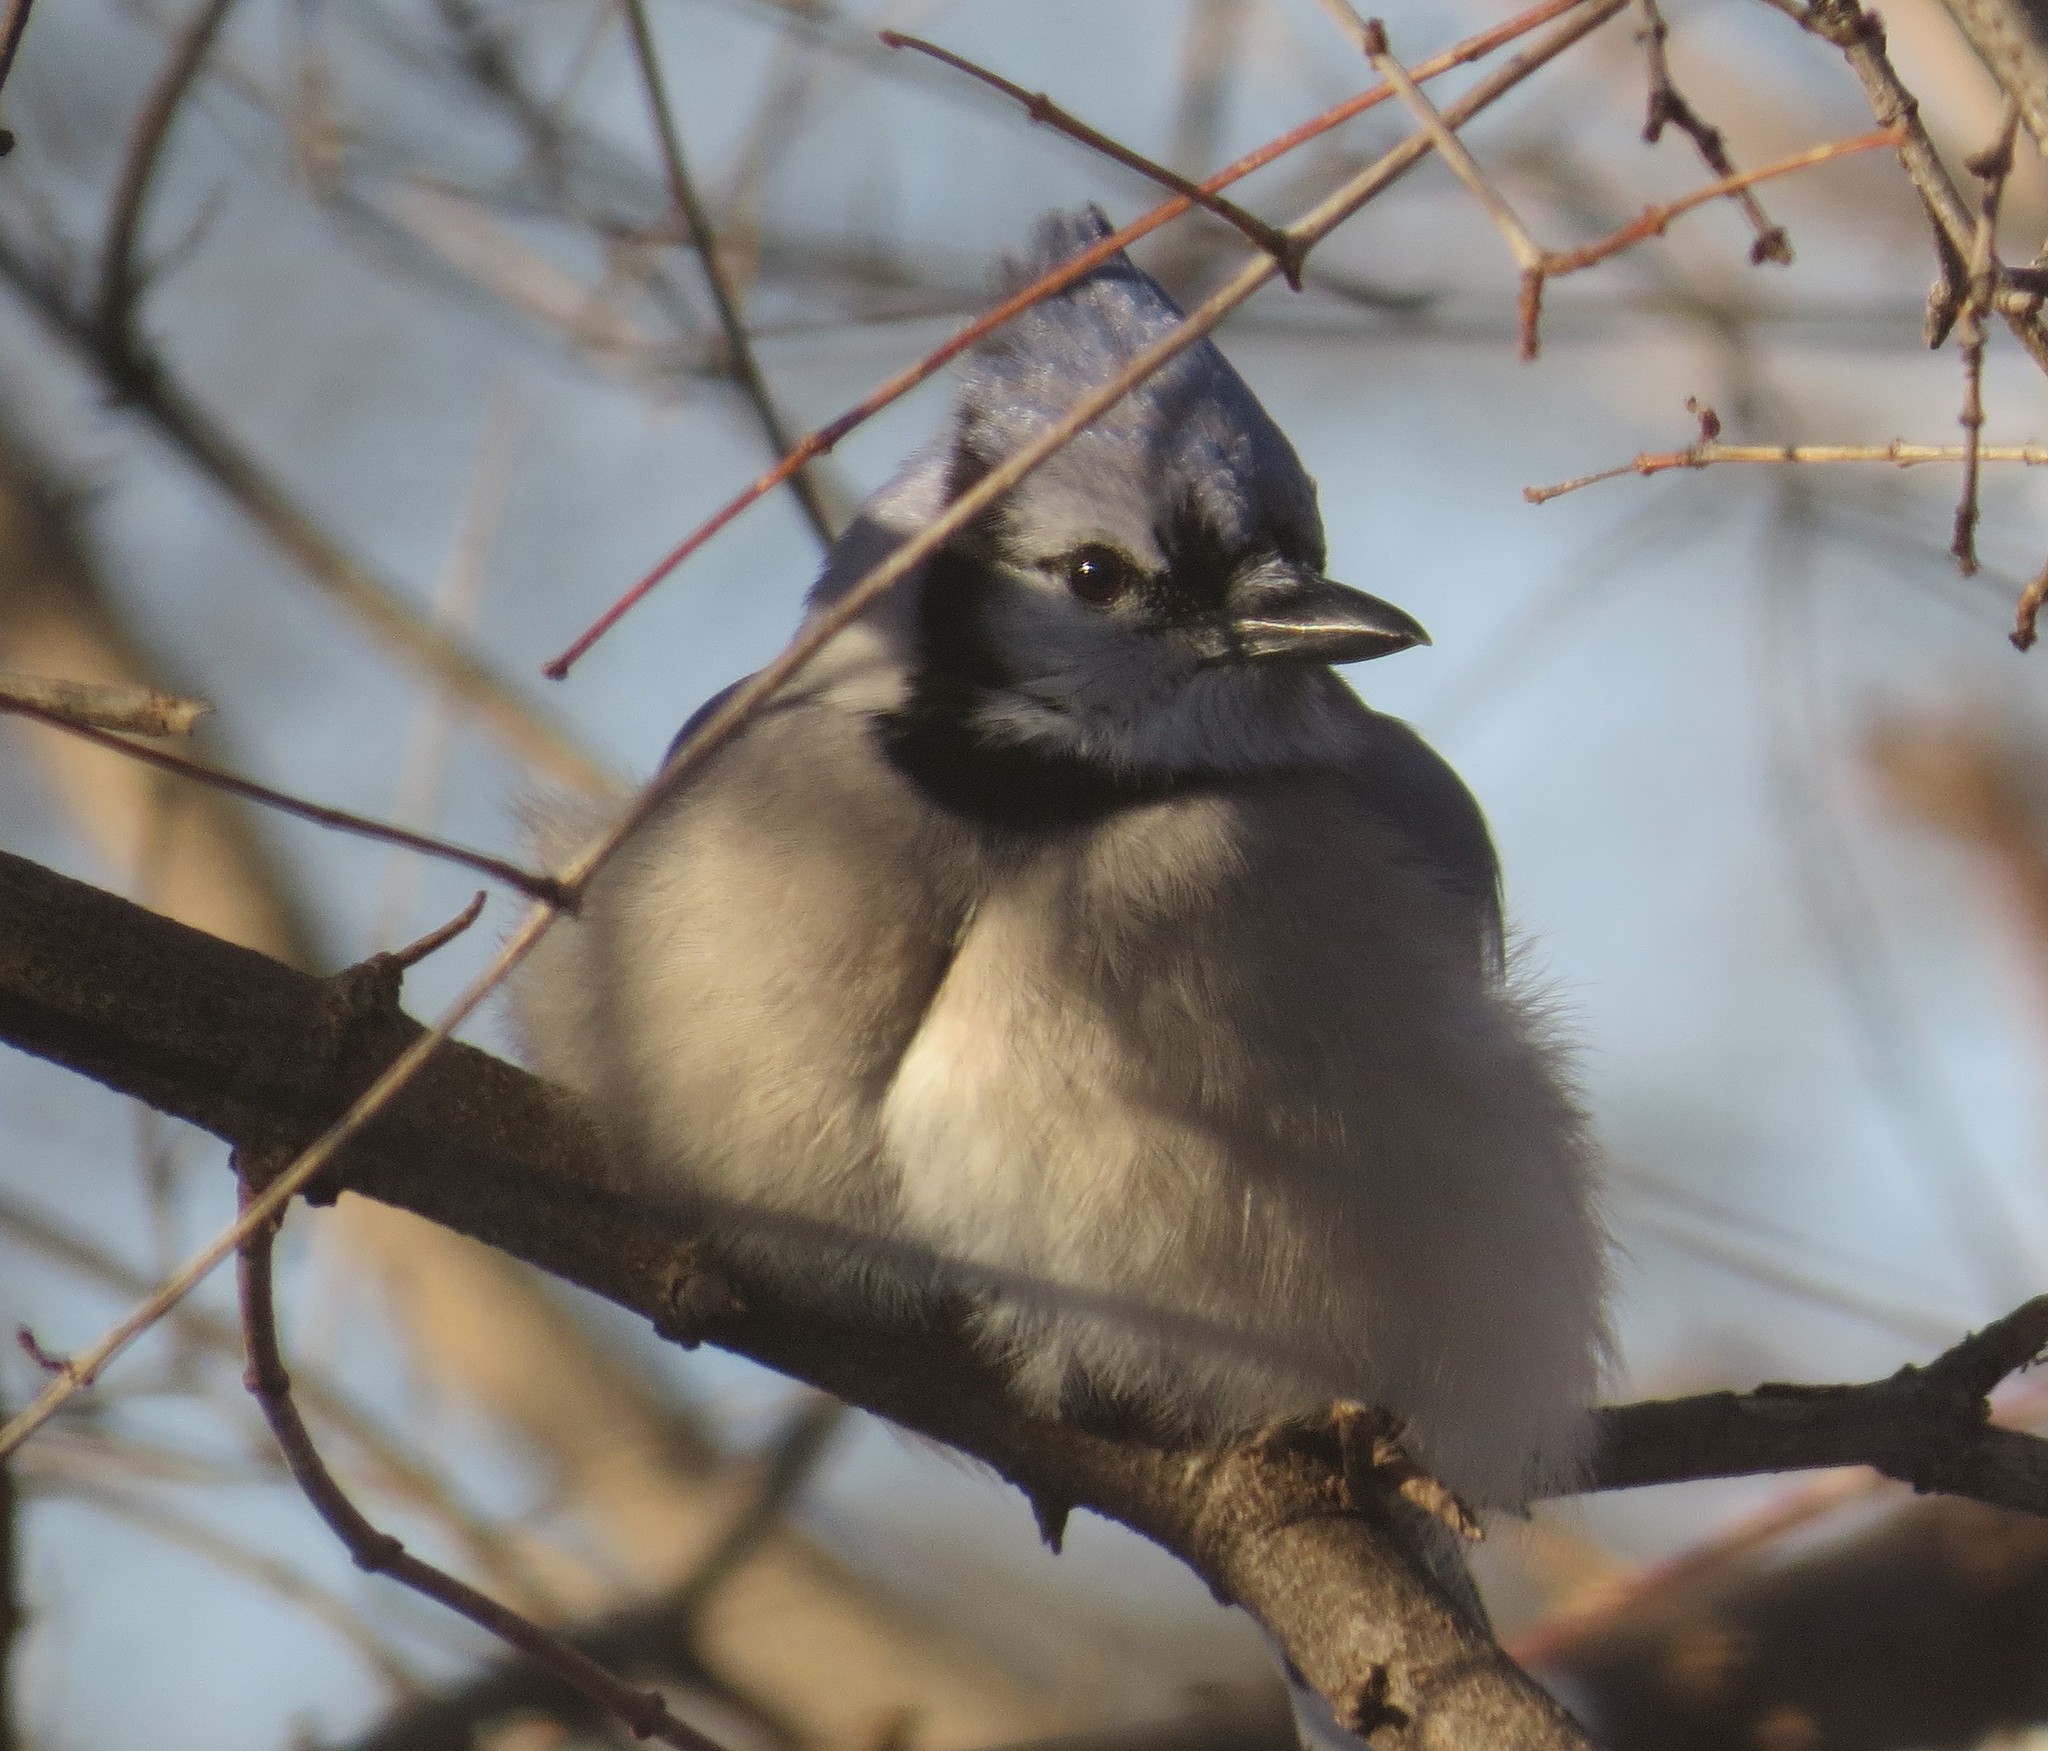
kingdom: Animalia
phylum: Chordata
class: Aves
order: Passeriformes
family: Corvidae
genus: Cyanocitta
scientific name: Cyanocitta cristata
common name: Blue jay
